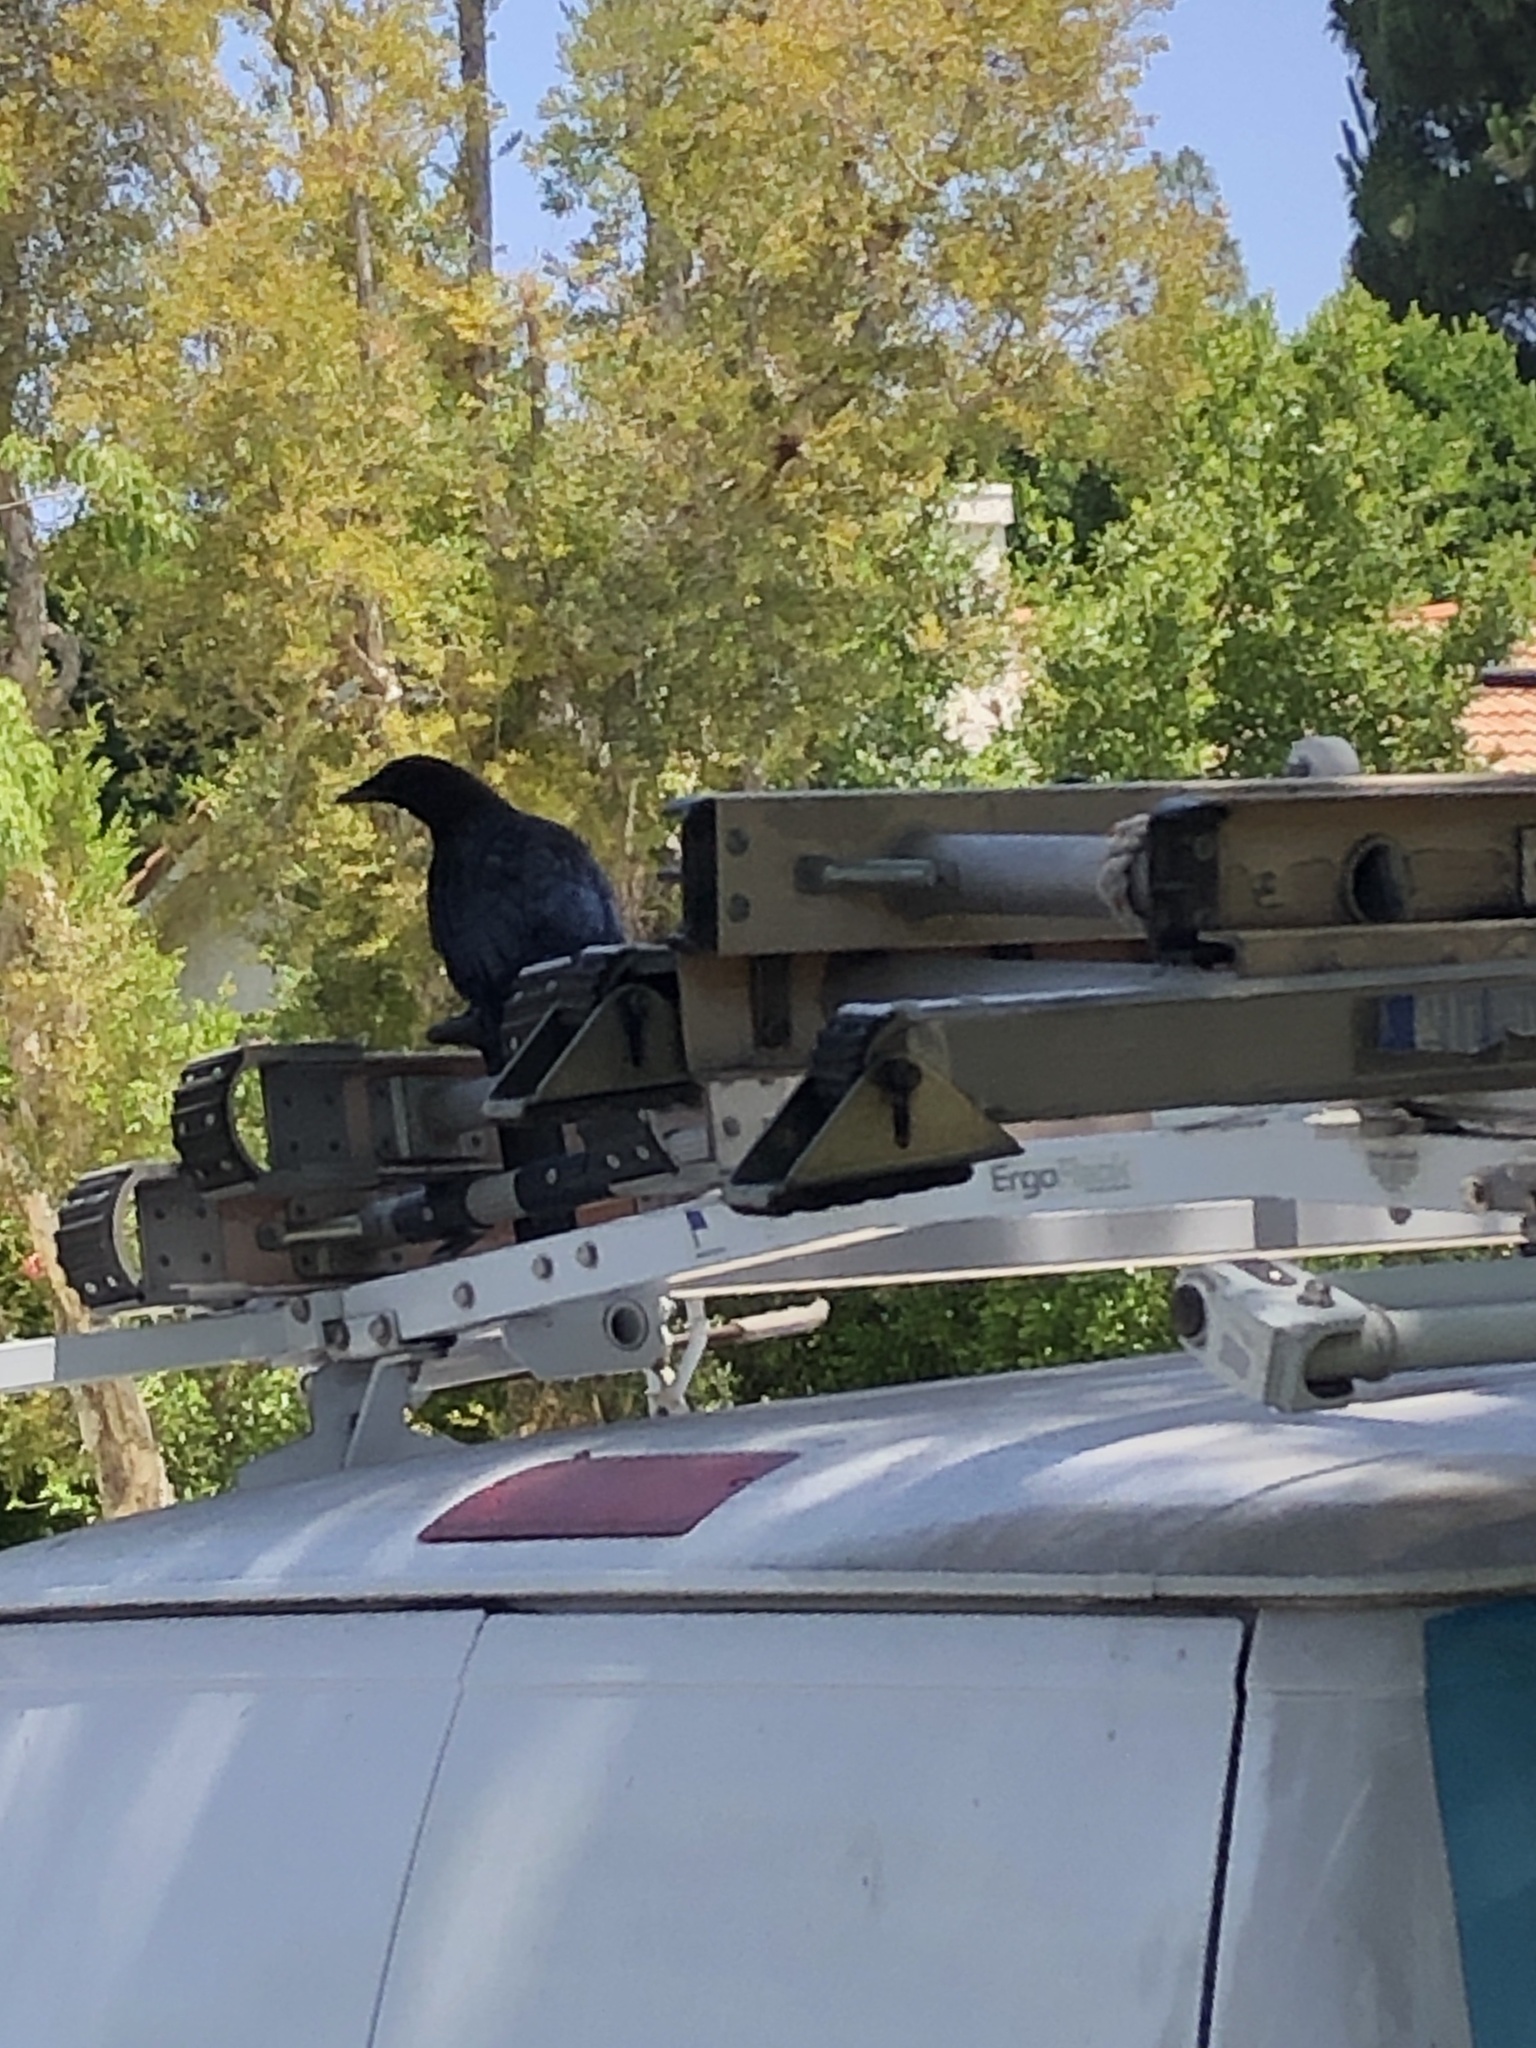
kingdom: Animalia
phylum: Chordata
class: Aves
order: Passeriformes
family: Corvidae
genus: Corvus
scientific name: Corvus brachyrhynchos
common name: American crow
